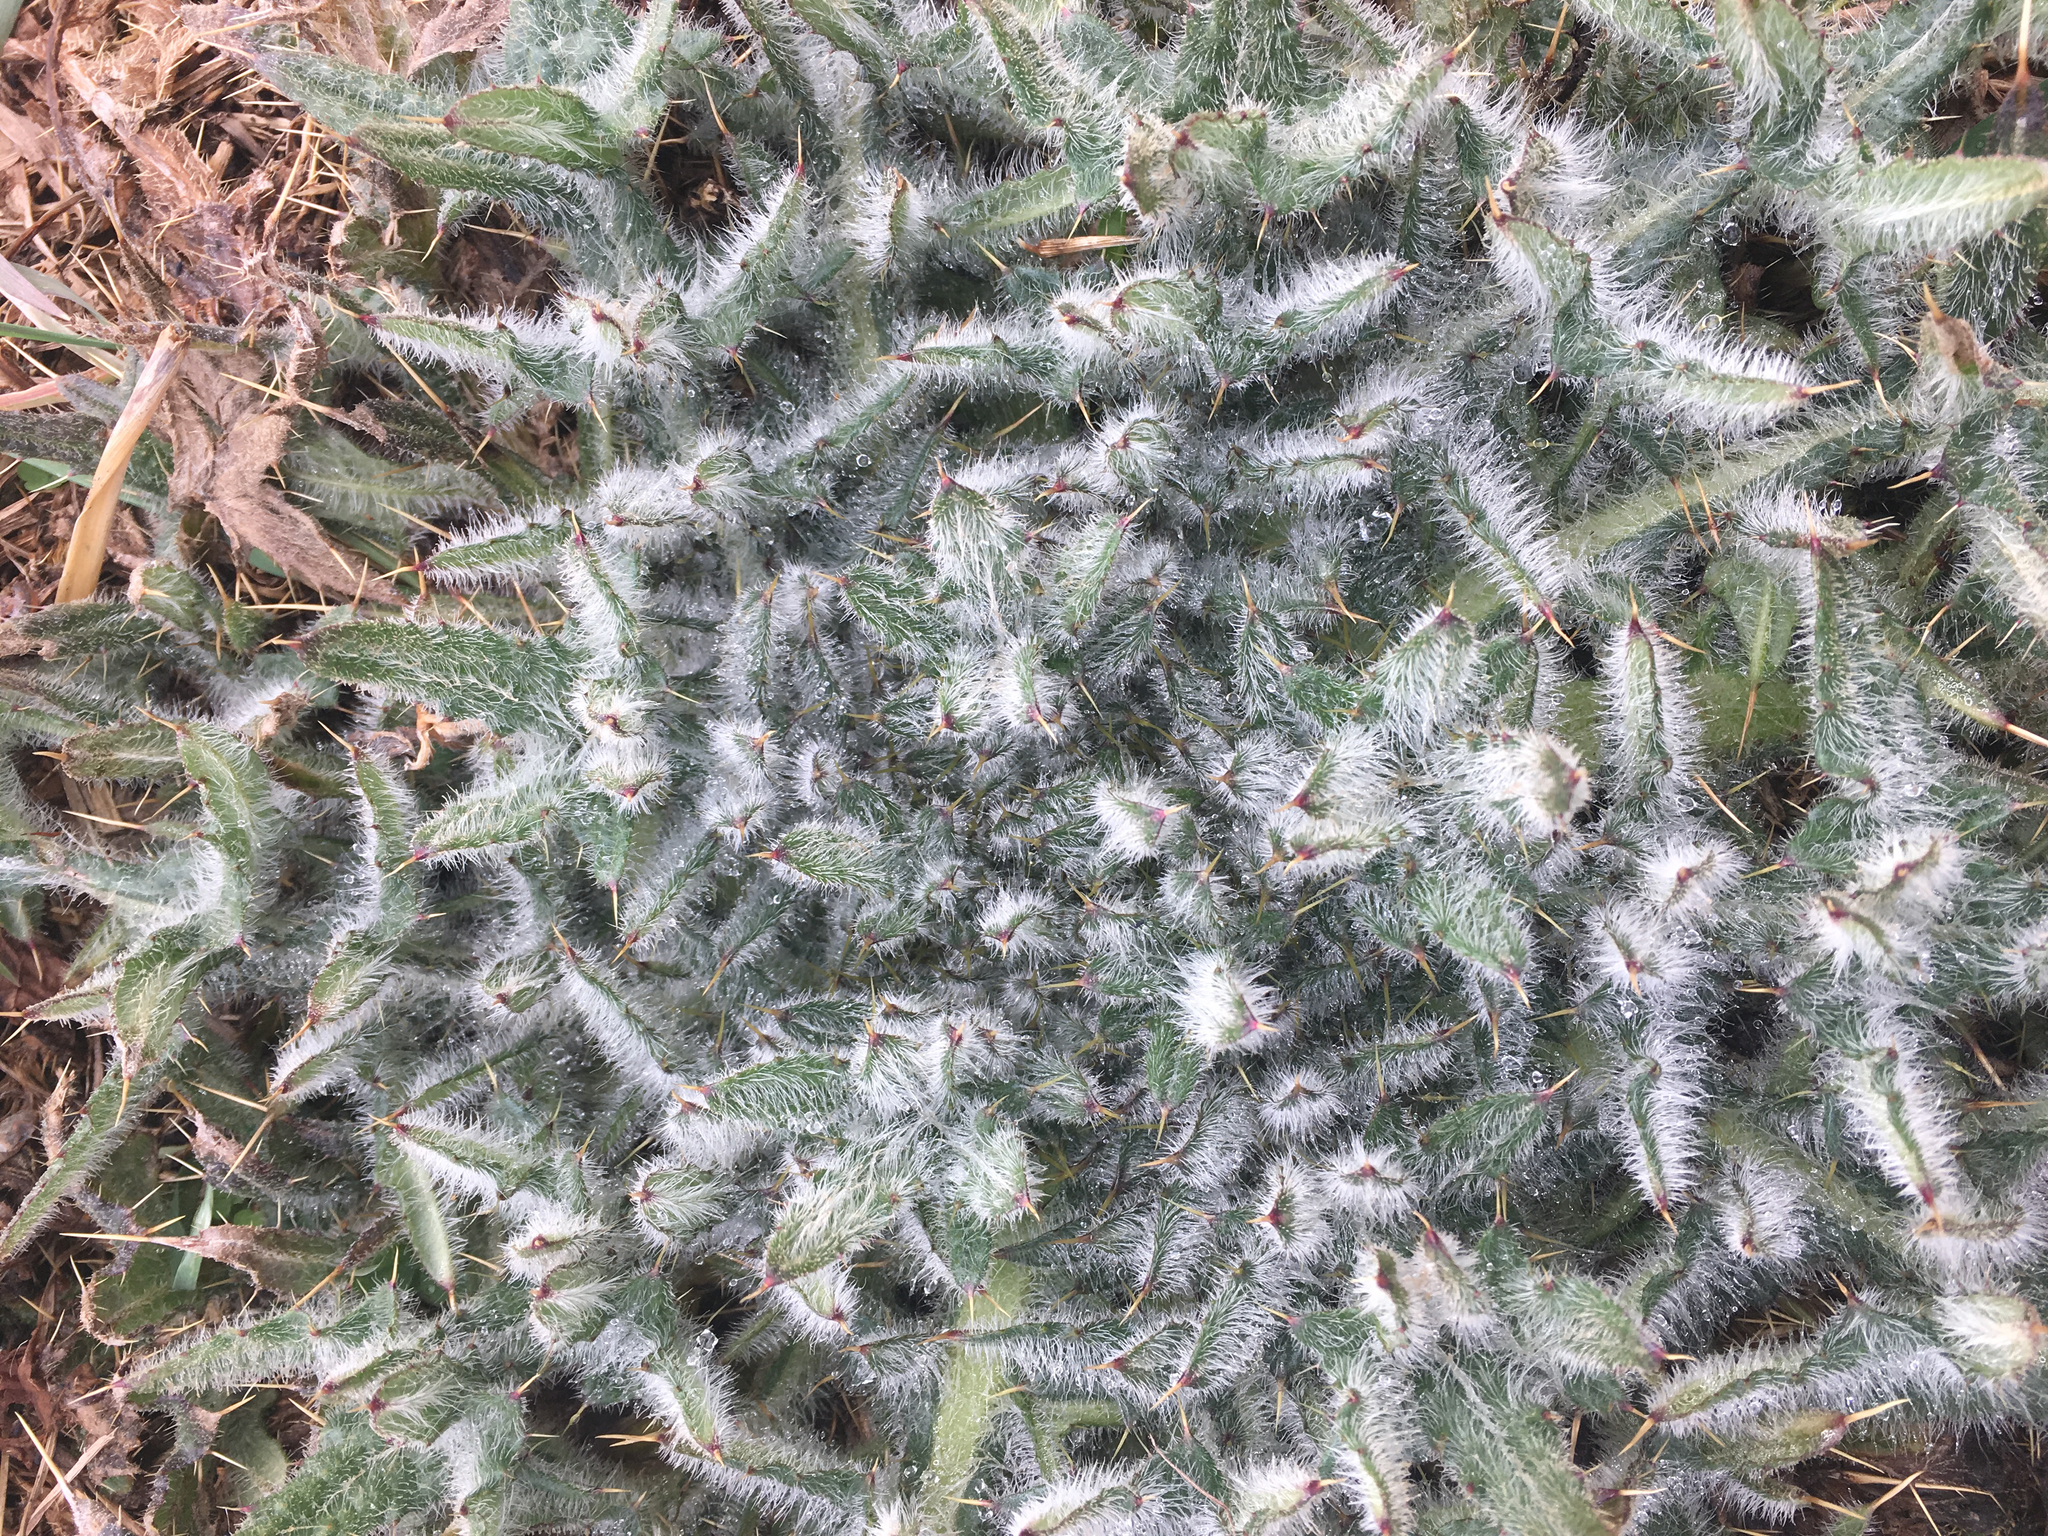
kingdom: Plantae
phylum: Tracheophyta
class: Magnoliopsida
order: Asterales
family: Asteraceae
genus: Cirsium
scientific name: Cirsium vulgare
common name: Bull thistle
